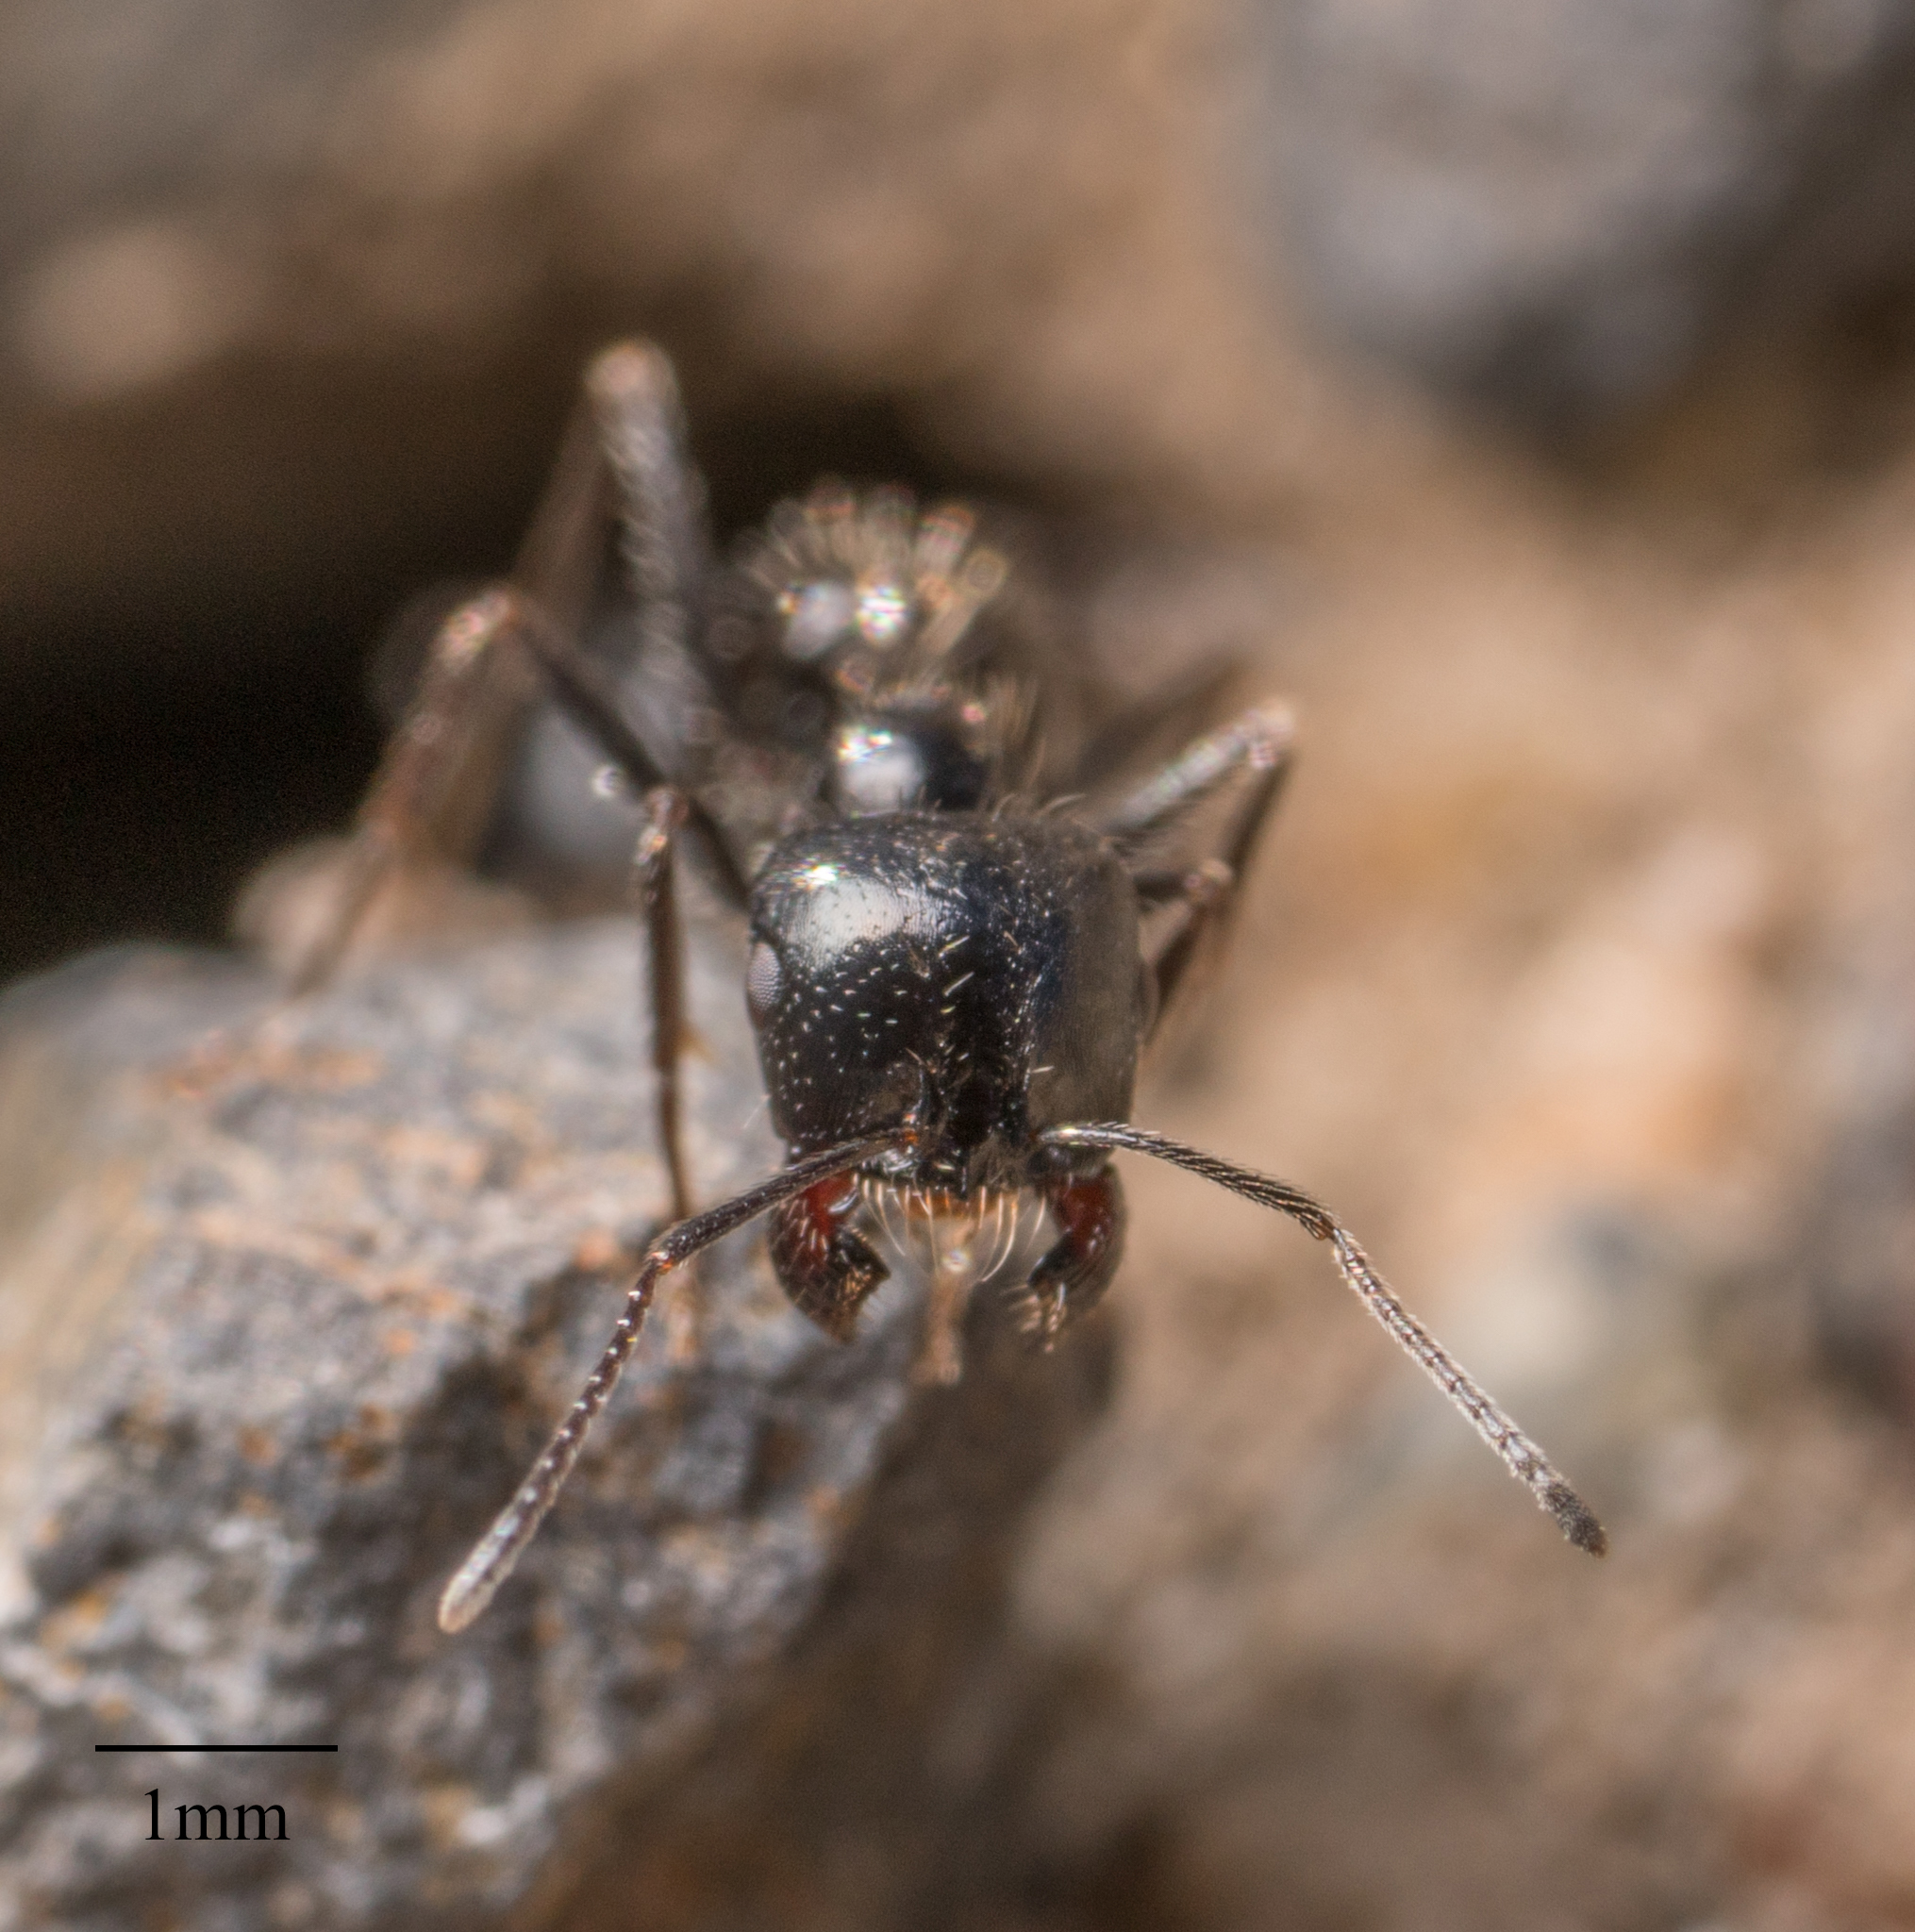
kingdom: Animalia
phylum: Arthropoda
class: Insecta
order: Hymenoptera
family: Formicidae
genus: Messor
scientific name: Messor pergandei
